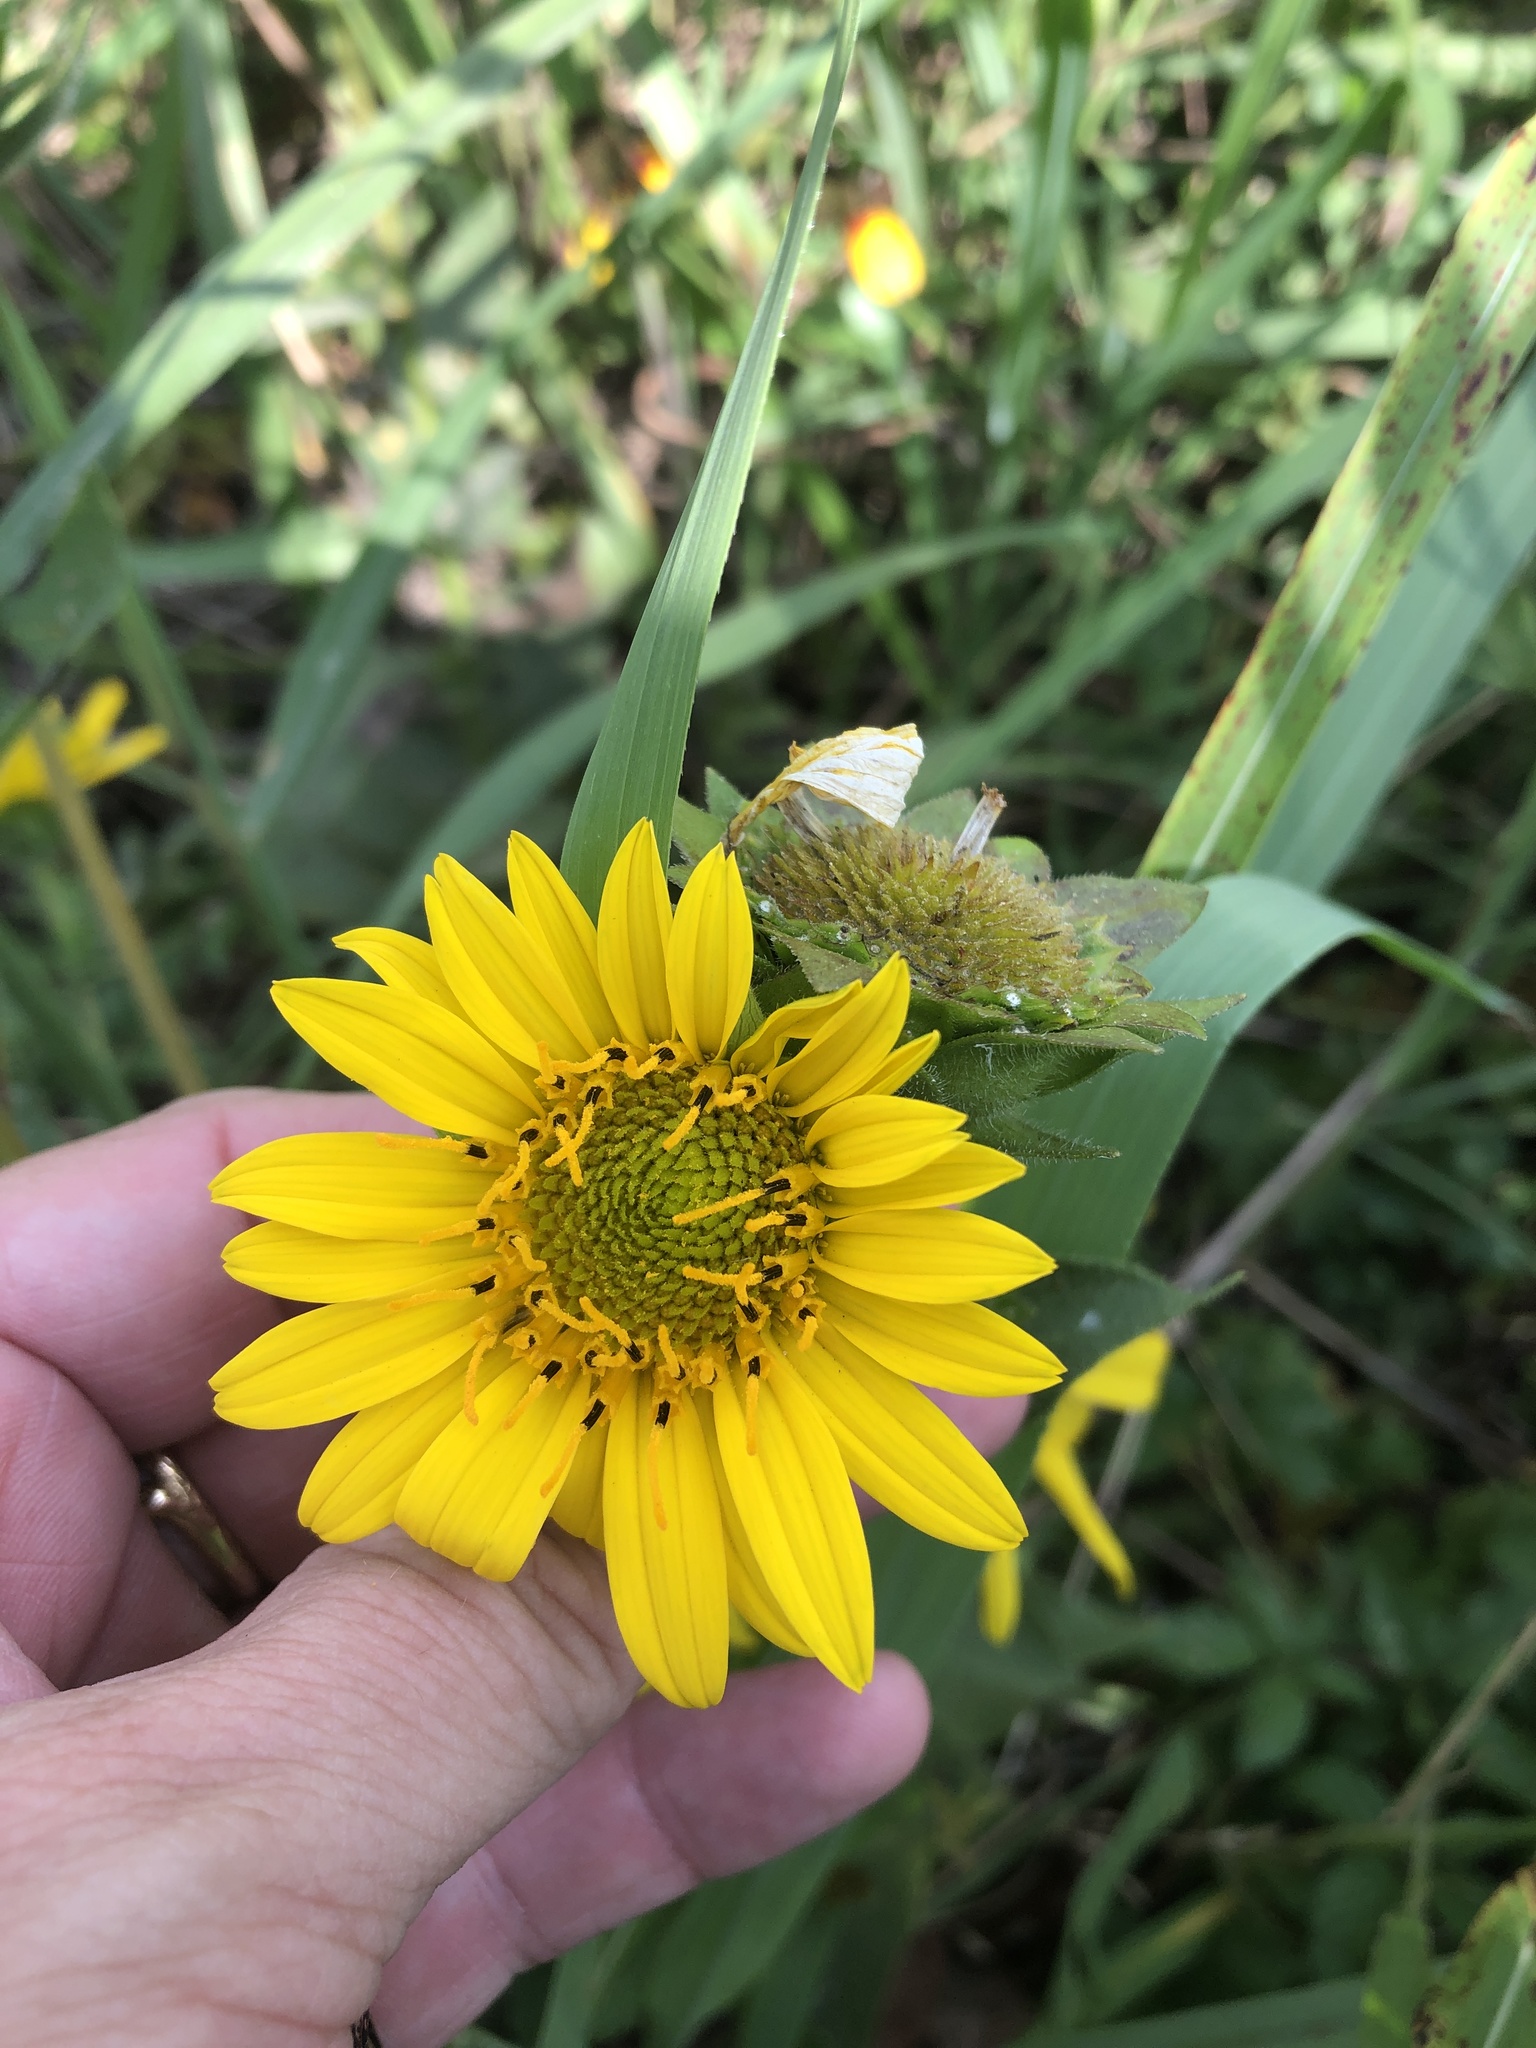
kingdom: Plantae
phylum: Tracheophyta
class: Magnoliopsida
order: Asterales
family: Asteraceae
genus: Silphium
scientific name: Silphium radula
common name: Roughleaf rosinweed
